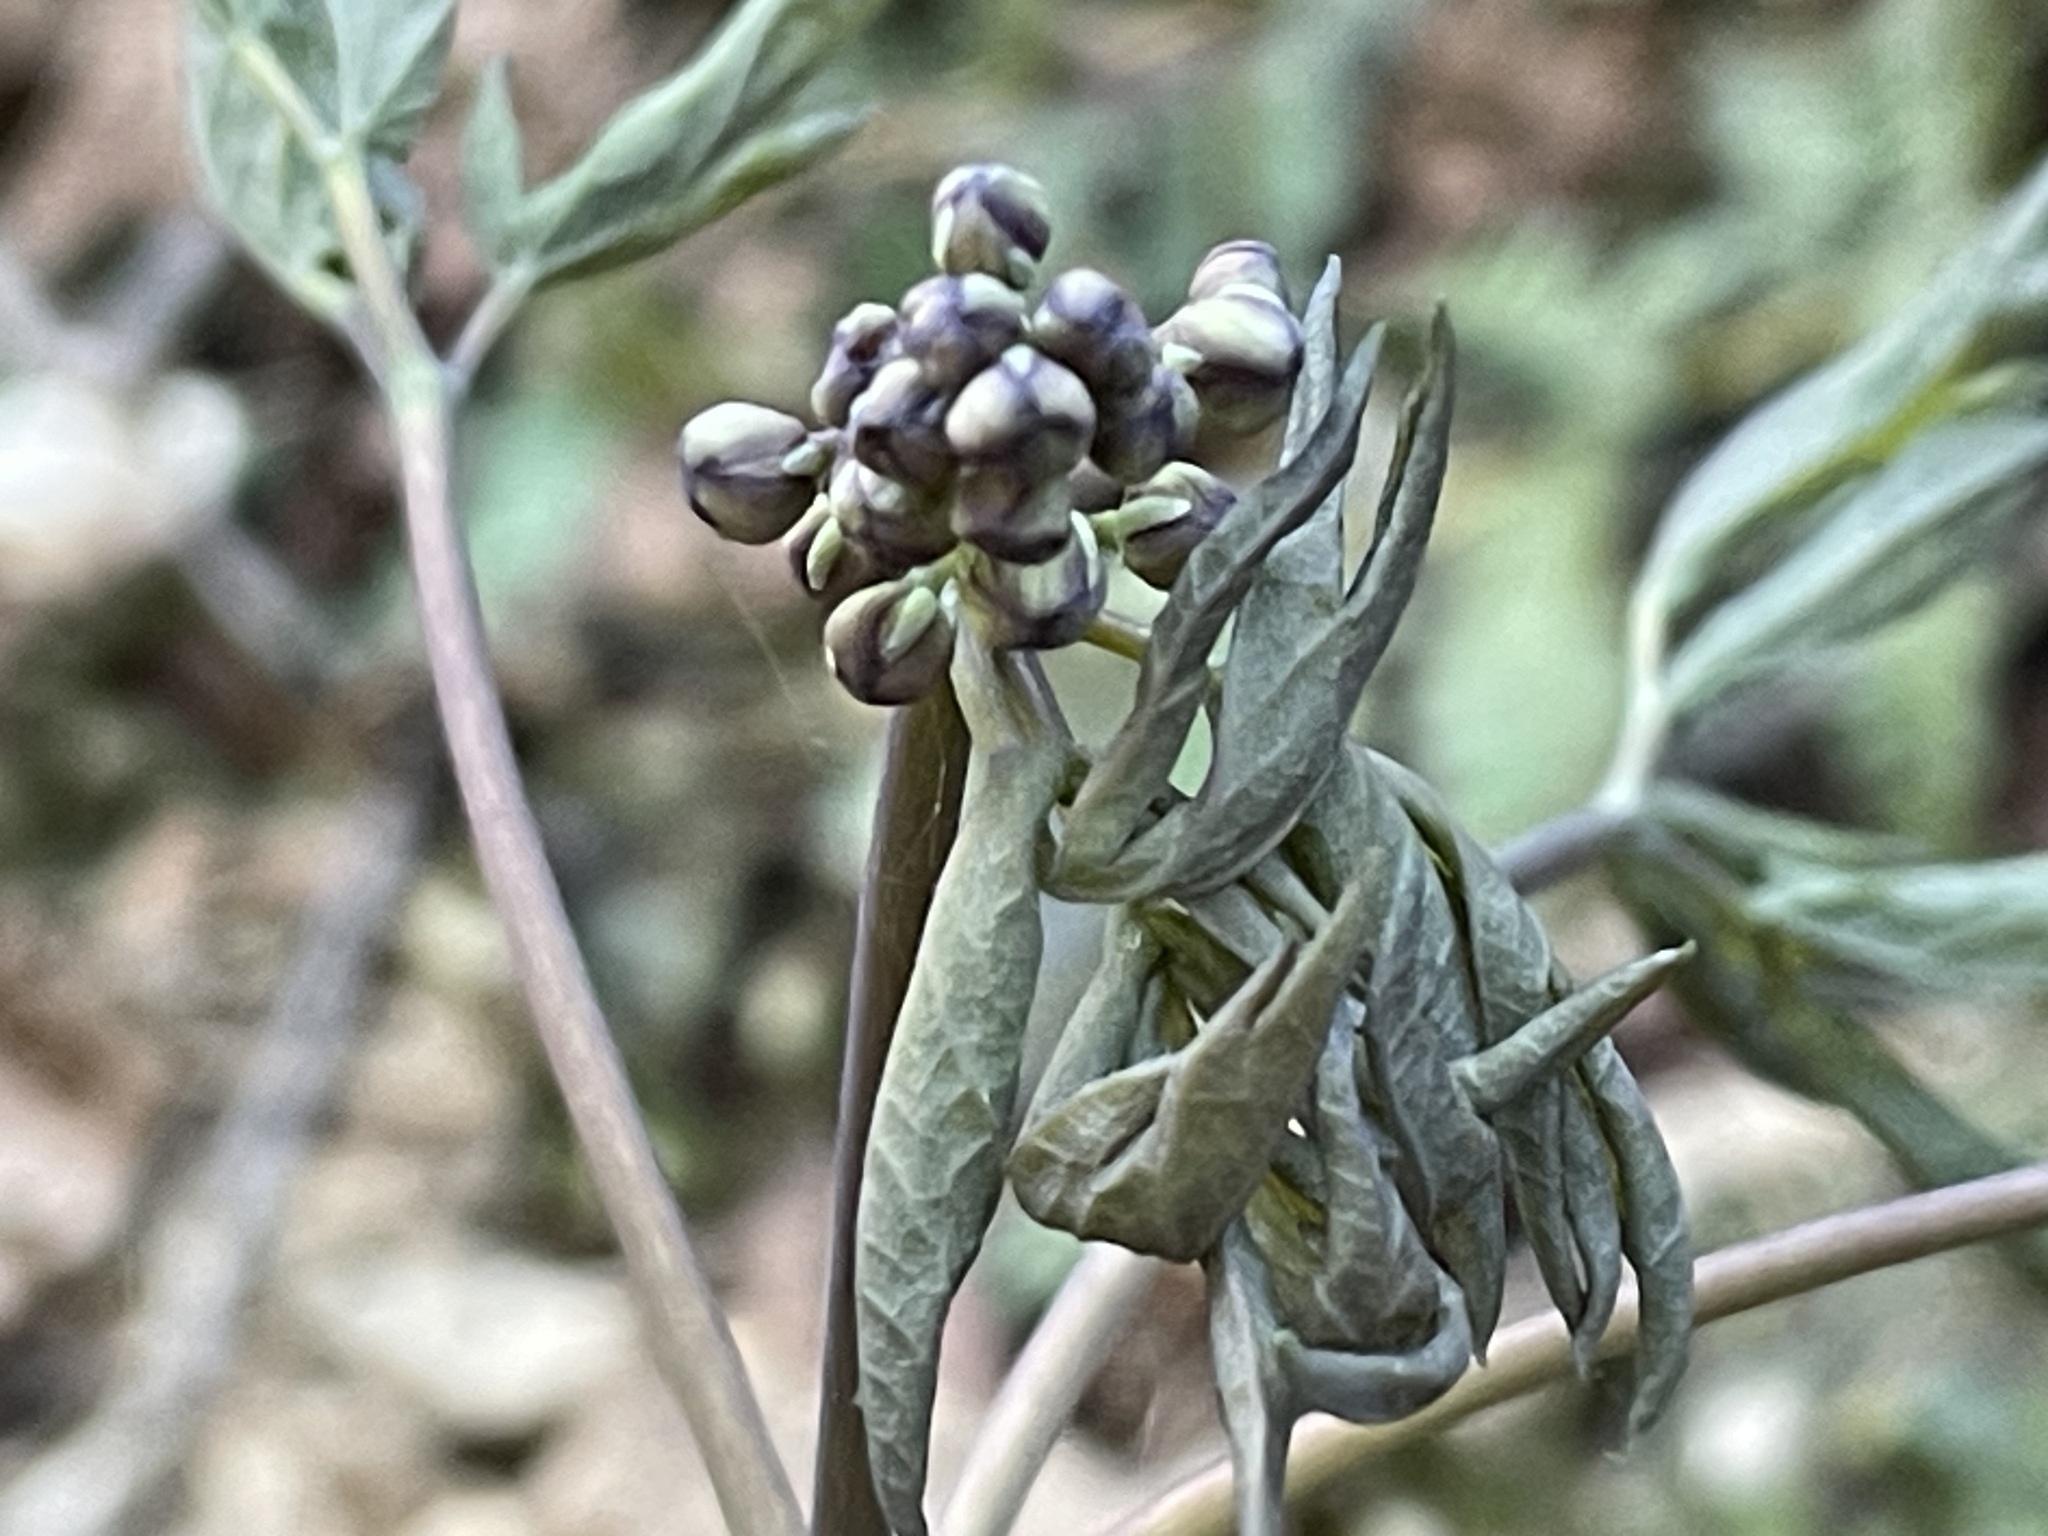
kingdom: Plantae
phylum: Tracheophyta
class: Magnoliopsida
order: Ranunculales
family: Berberidaceae
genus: Caulophyllum
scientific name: Caulophyllum giganteum
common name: Blue cohosh
